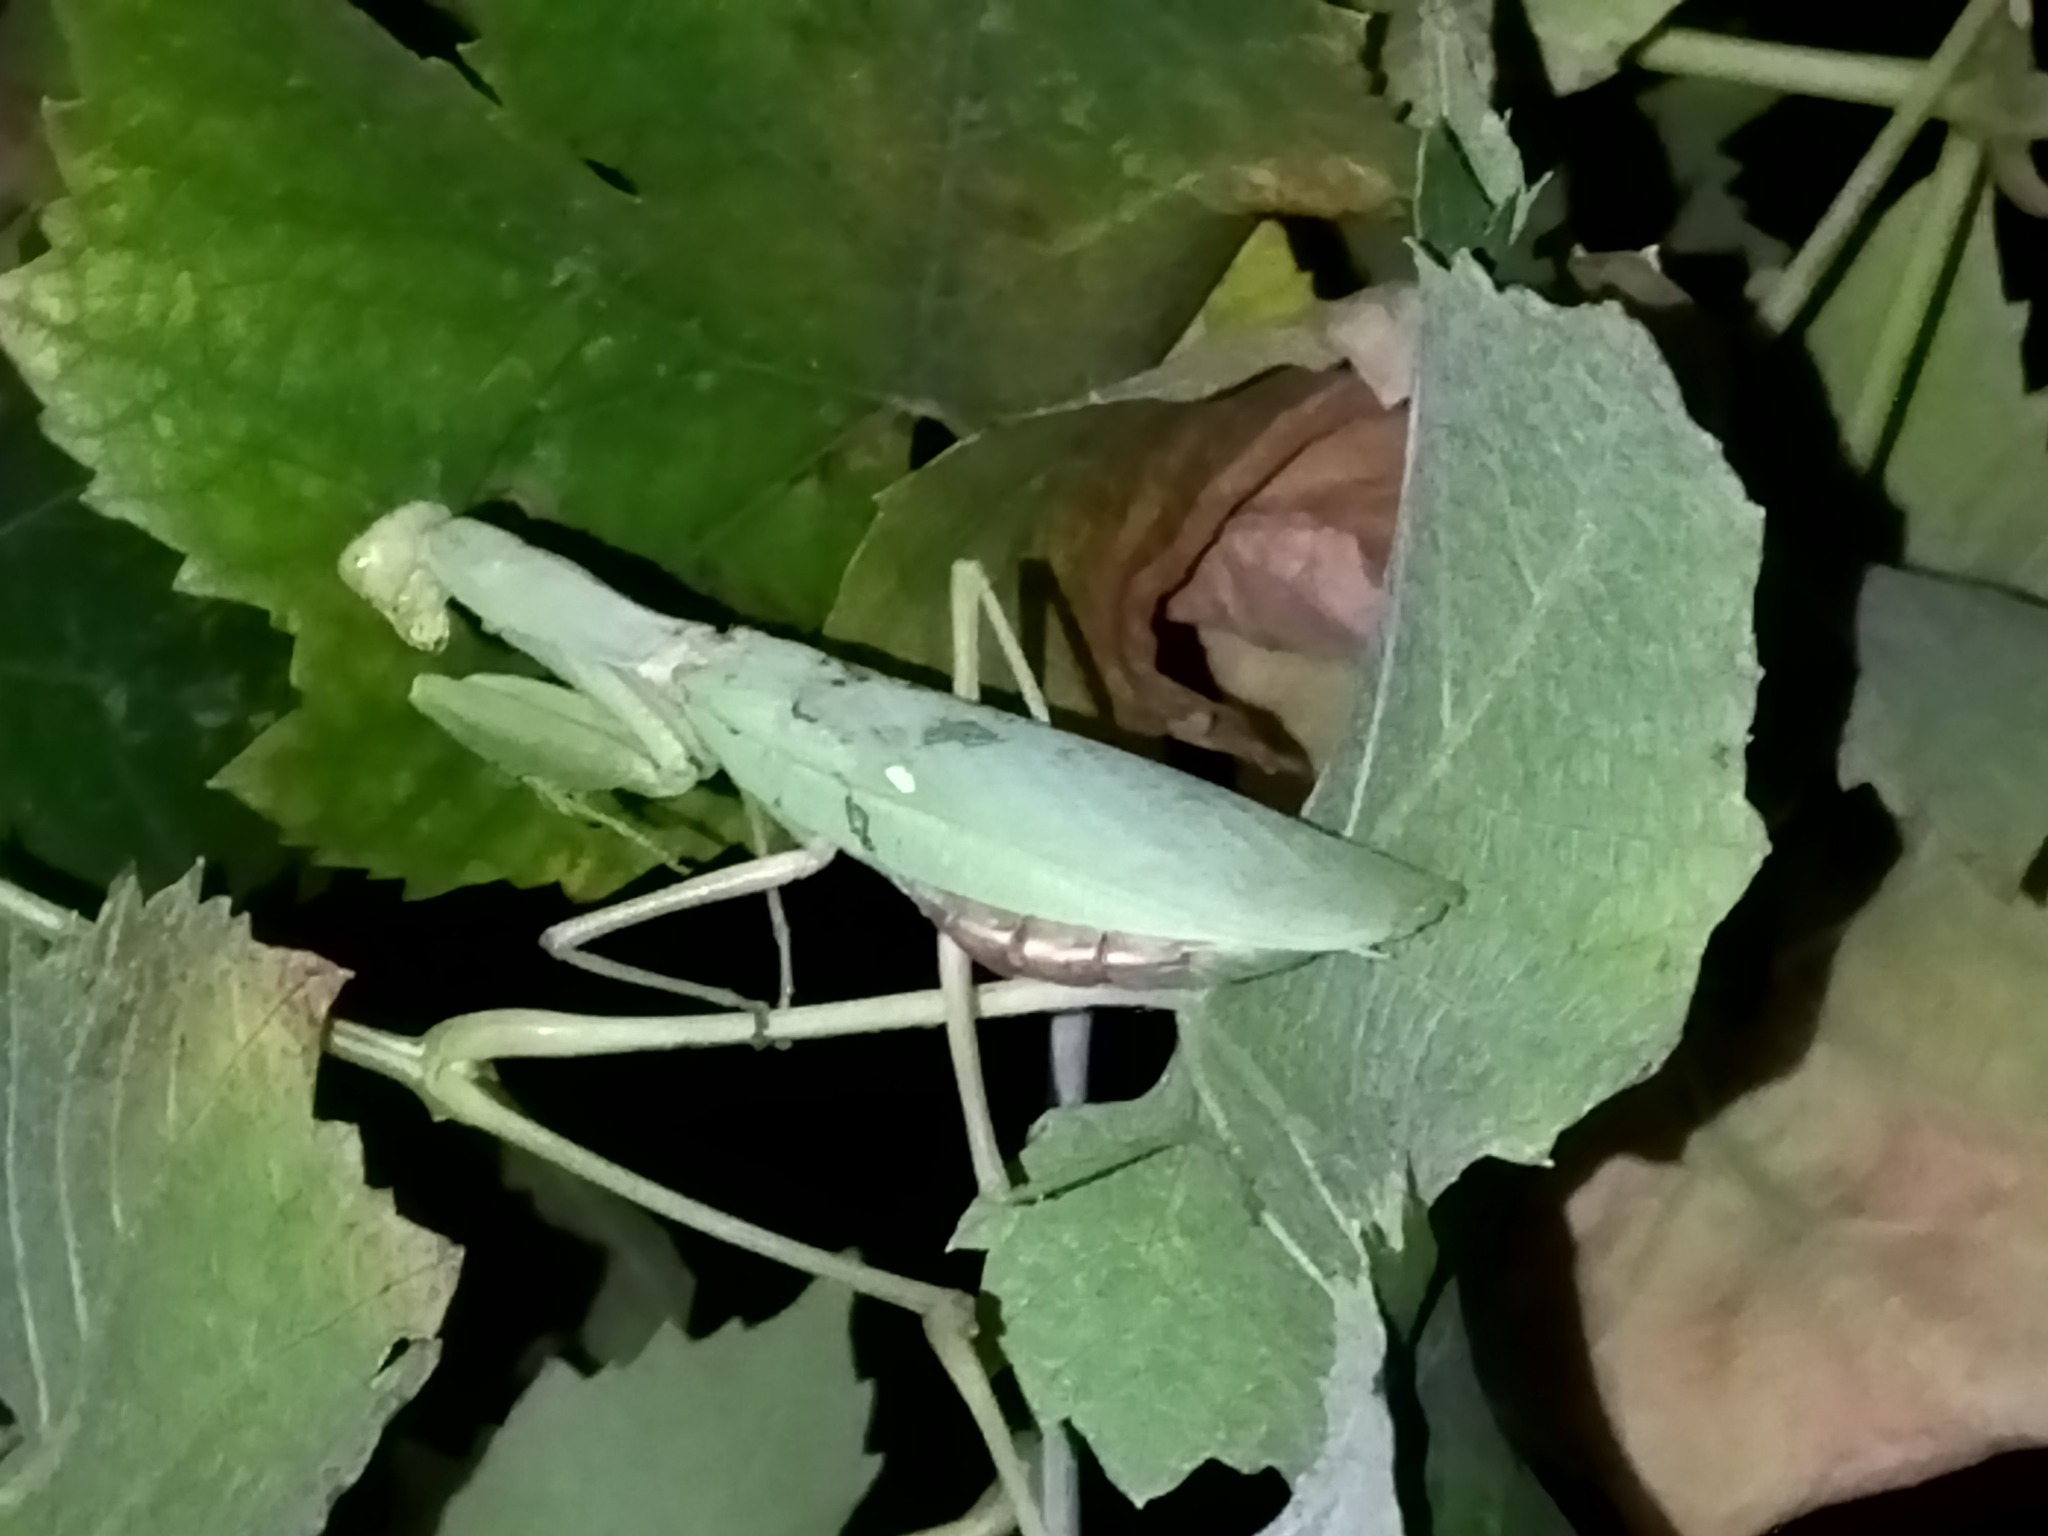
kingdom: Animalia
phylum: Arthropoda
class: Insecta
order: Mantodea
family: Mantidae
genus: Hierodula
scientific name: Hierodula transcaucasica
